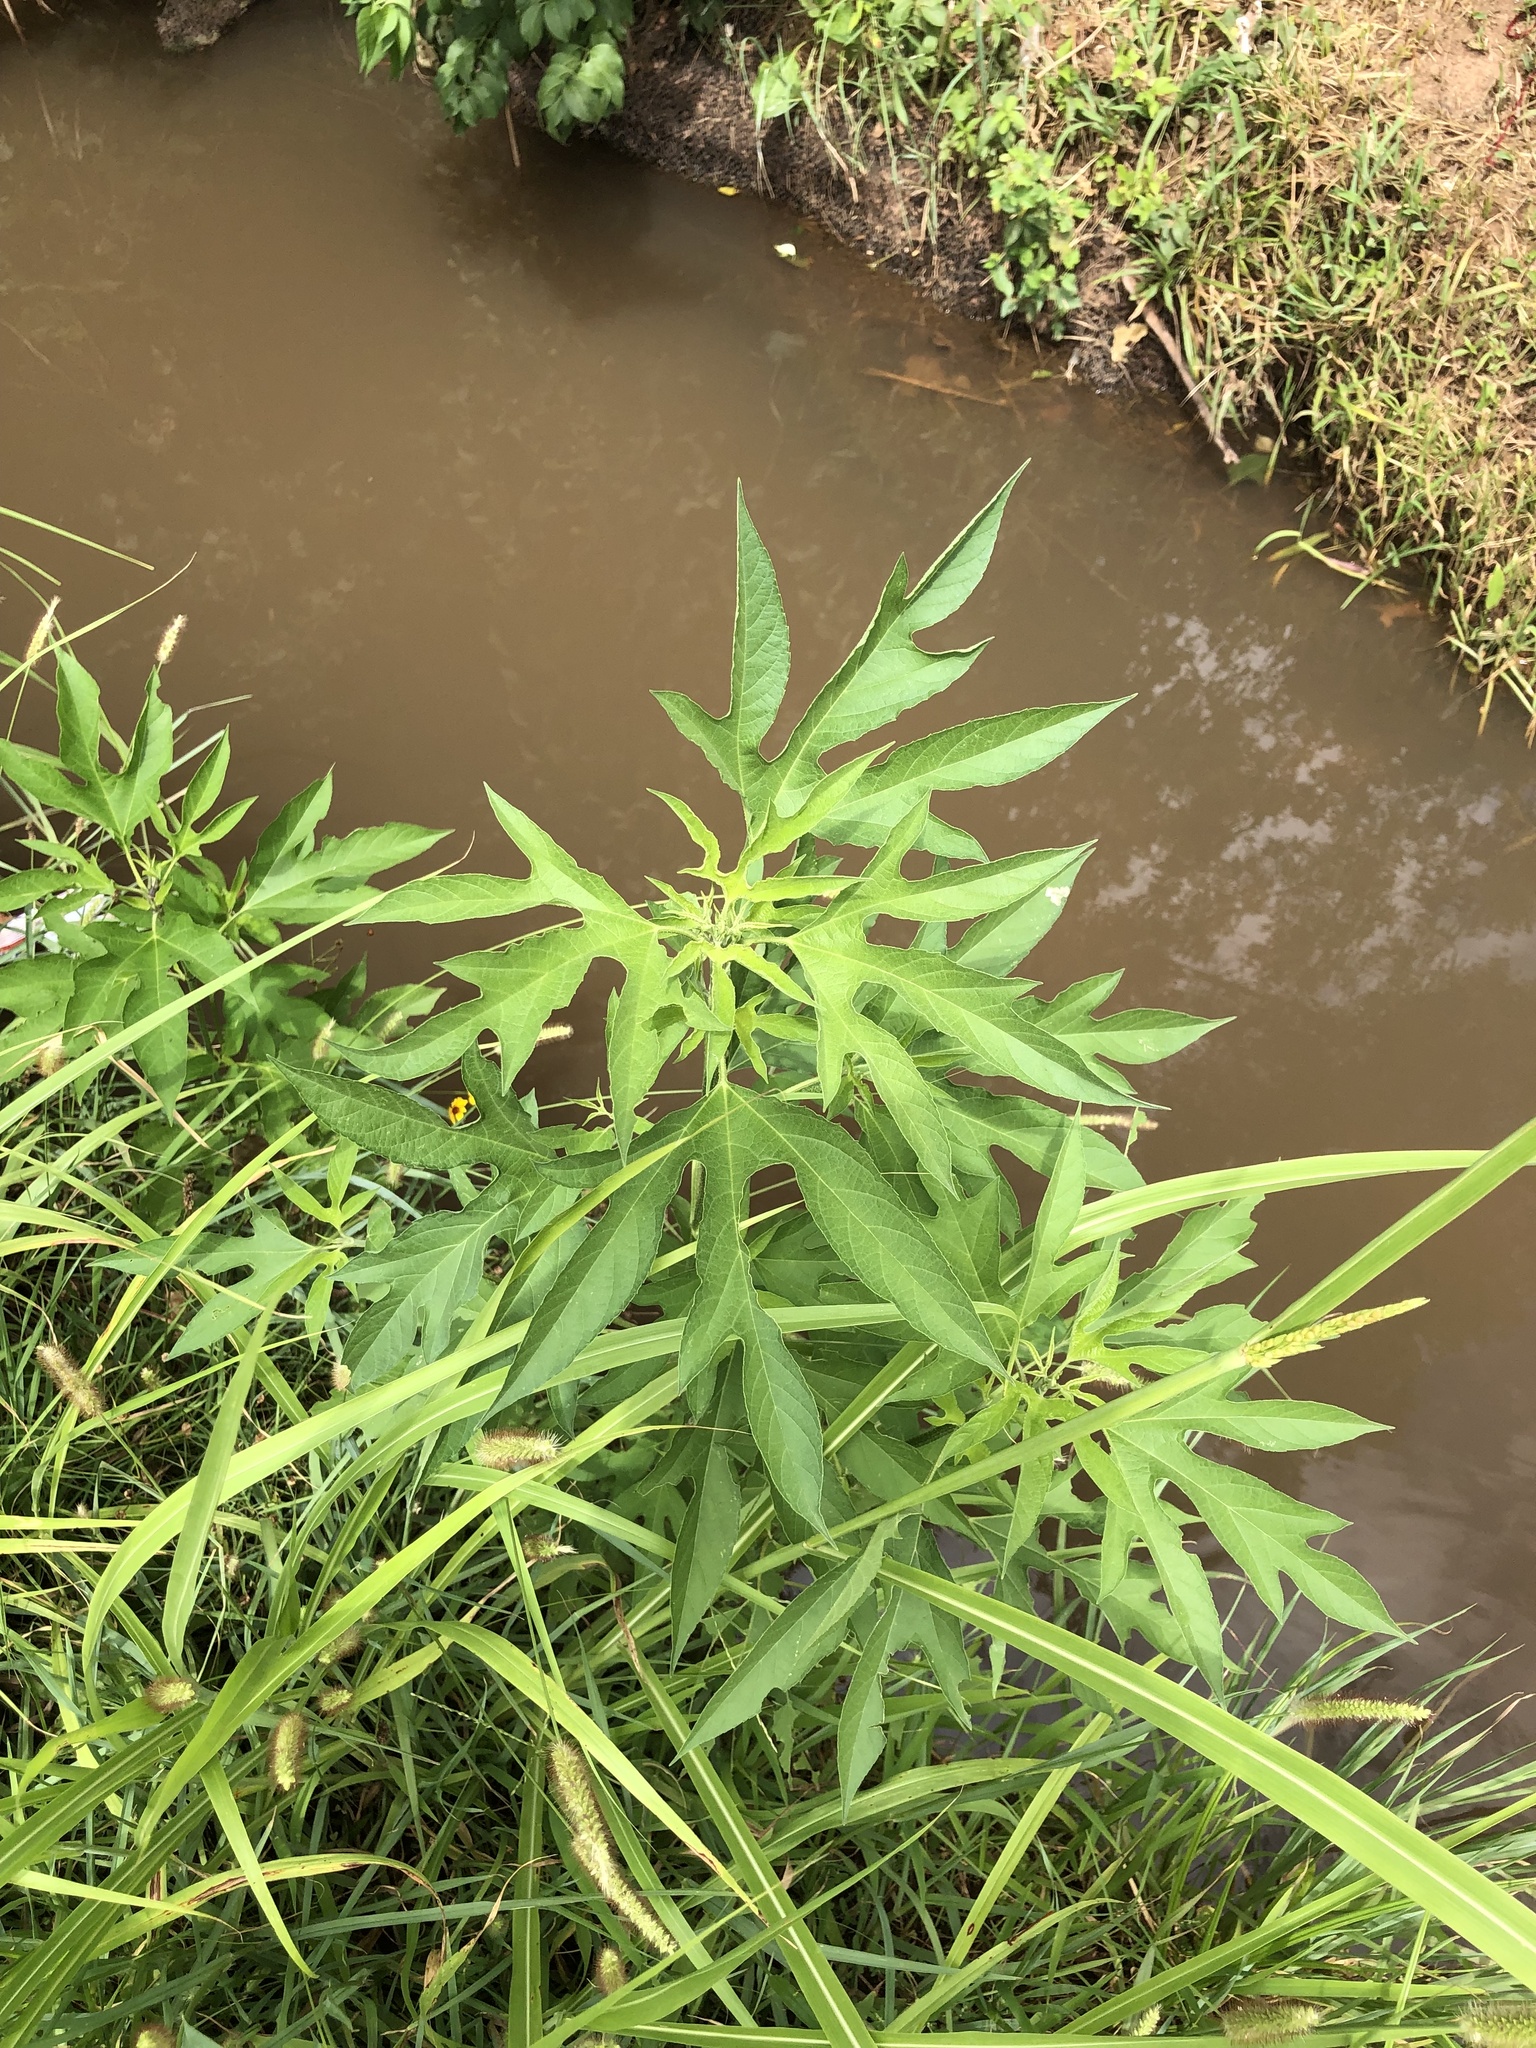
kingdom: Plantae
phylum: Tracheophyta
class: Magnoliopsida
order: Asterales
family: Asteraceae
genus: Ambrosia
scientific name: Ambrosia trifida
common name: Giant ragweed
